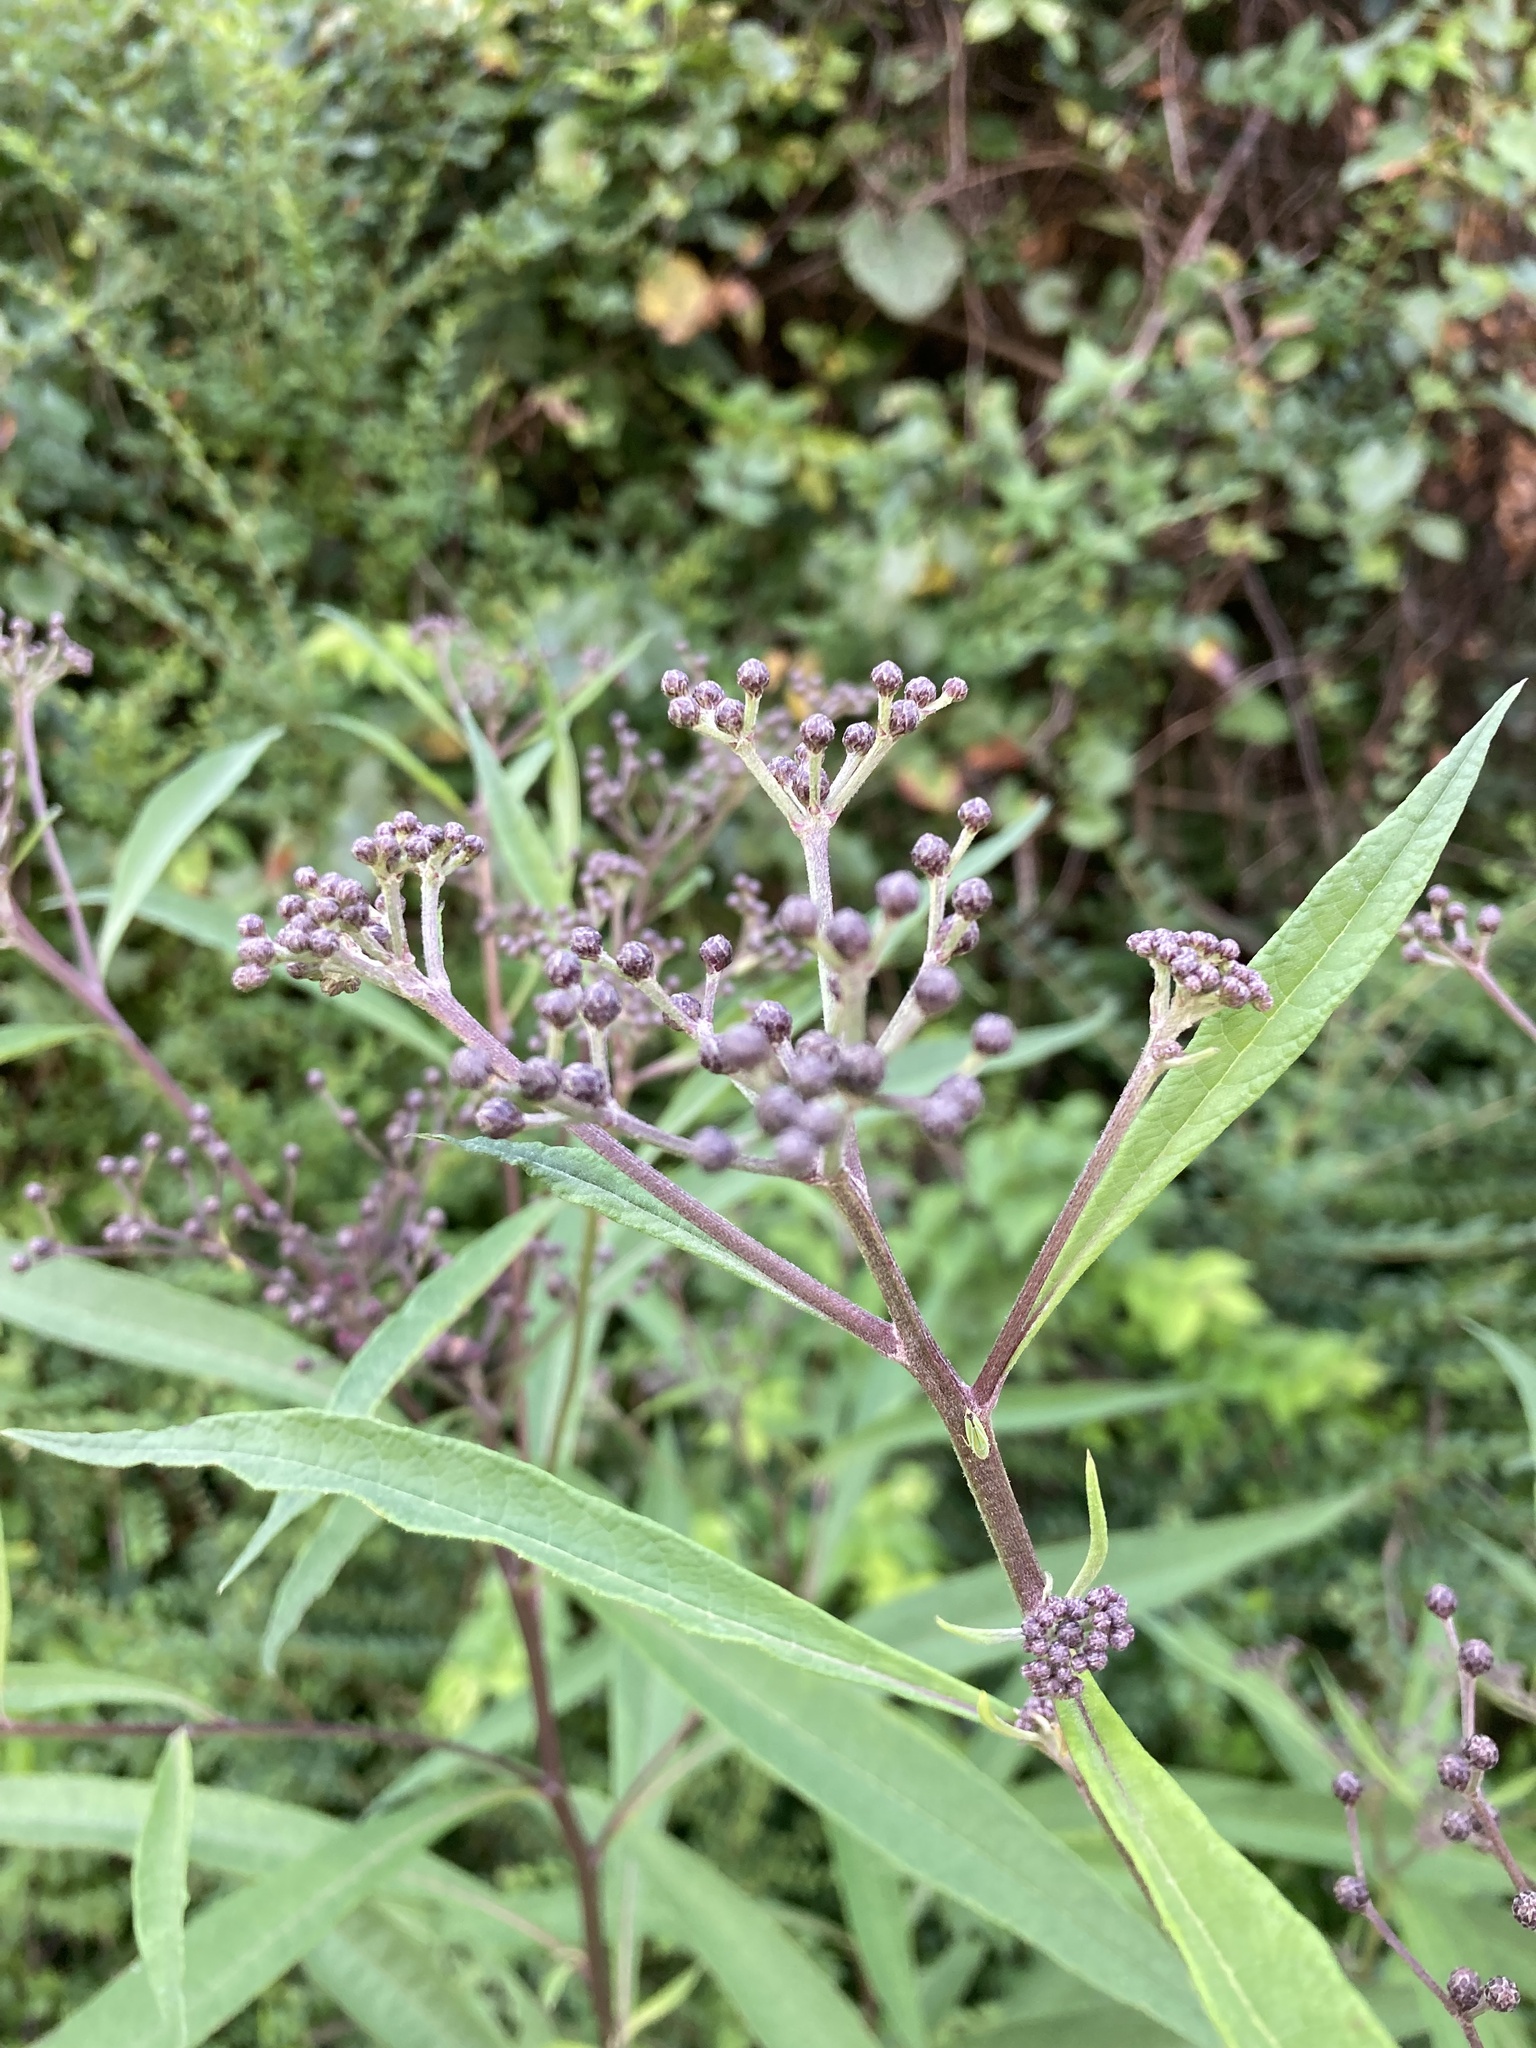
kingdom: Plantae
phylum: Tracheophyta
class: Magnoliopsida
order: Asterales
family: Asteraceae
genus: Vernonia
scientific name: Vernonia gigantea
